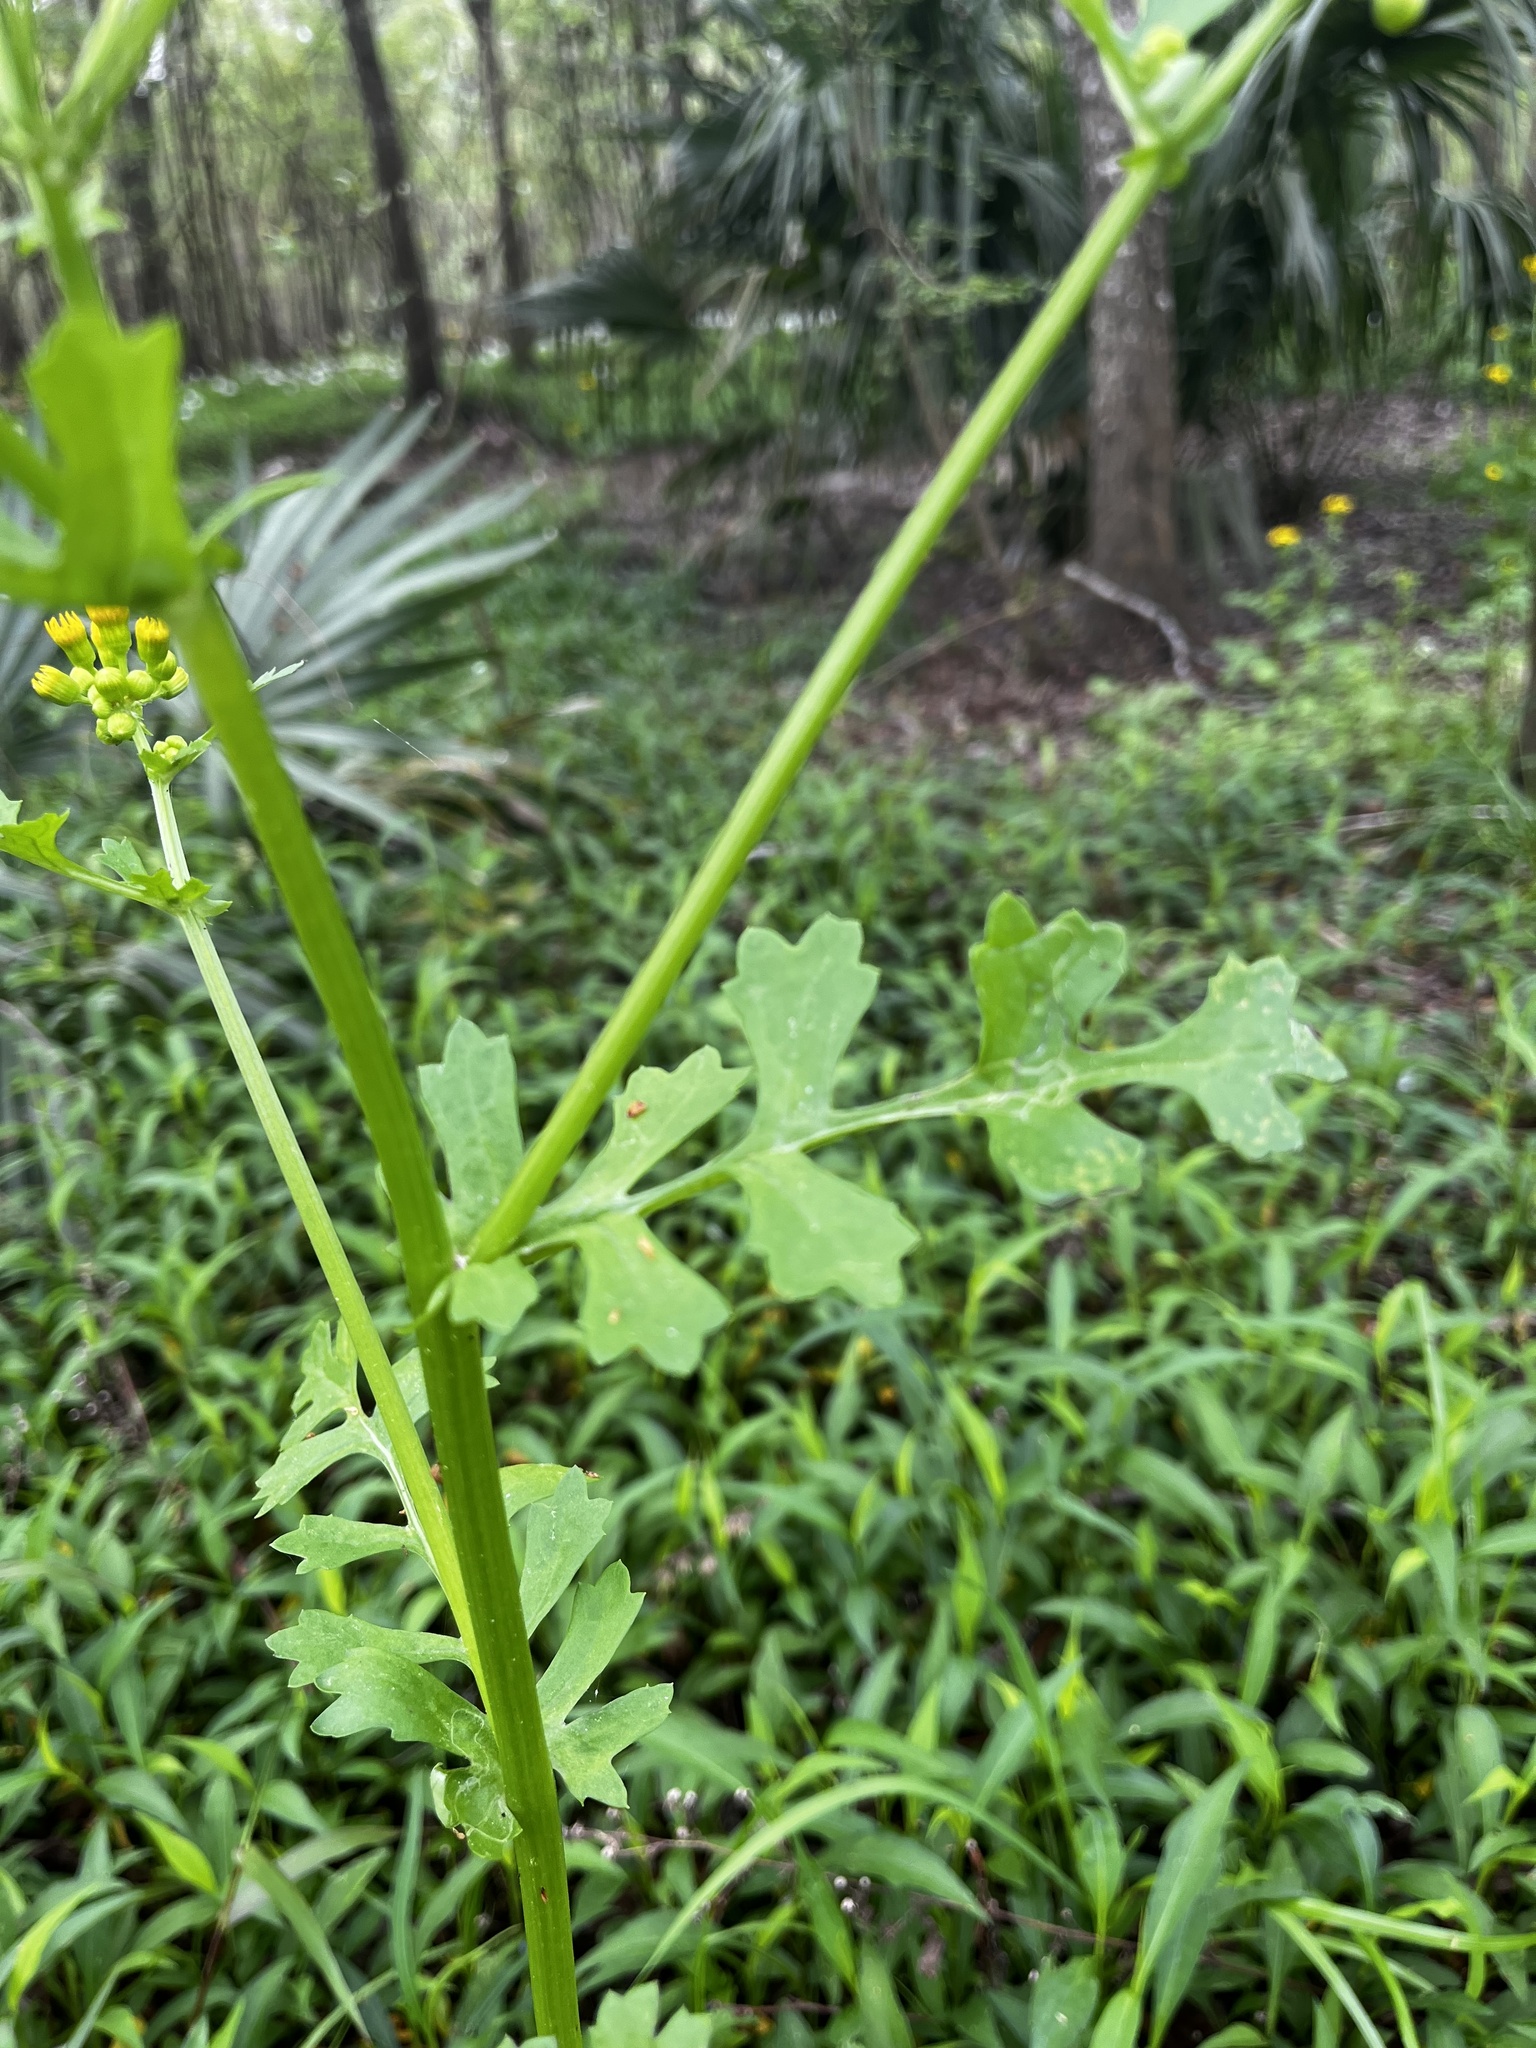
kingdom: Plantae
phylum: Tracheophyta
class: Magnoliopsida
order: Asterales
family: Asteraceae
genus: Packera
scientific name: Packera glabella
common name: Butterweed
